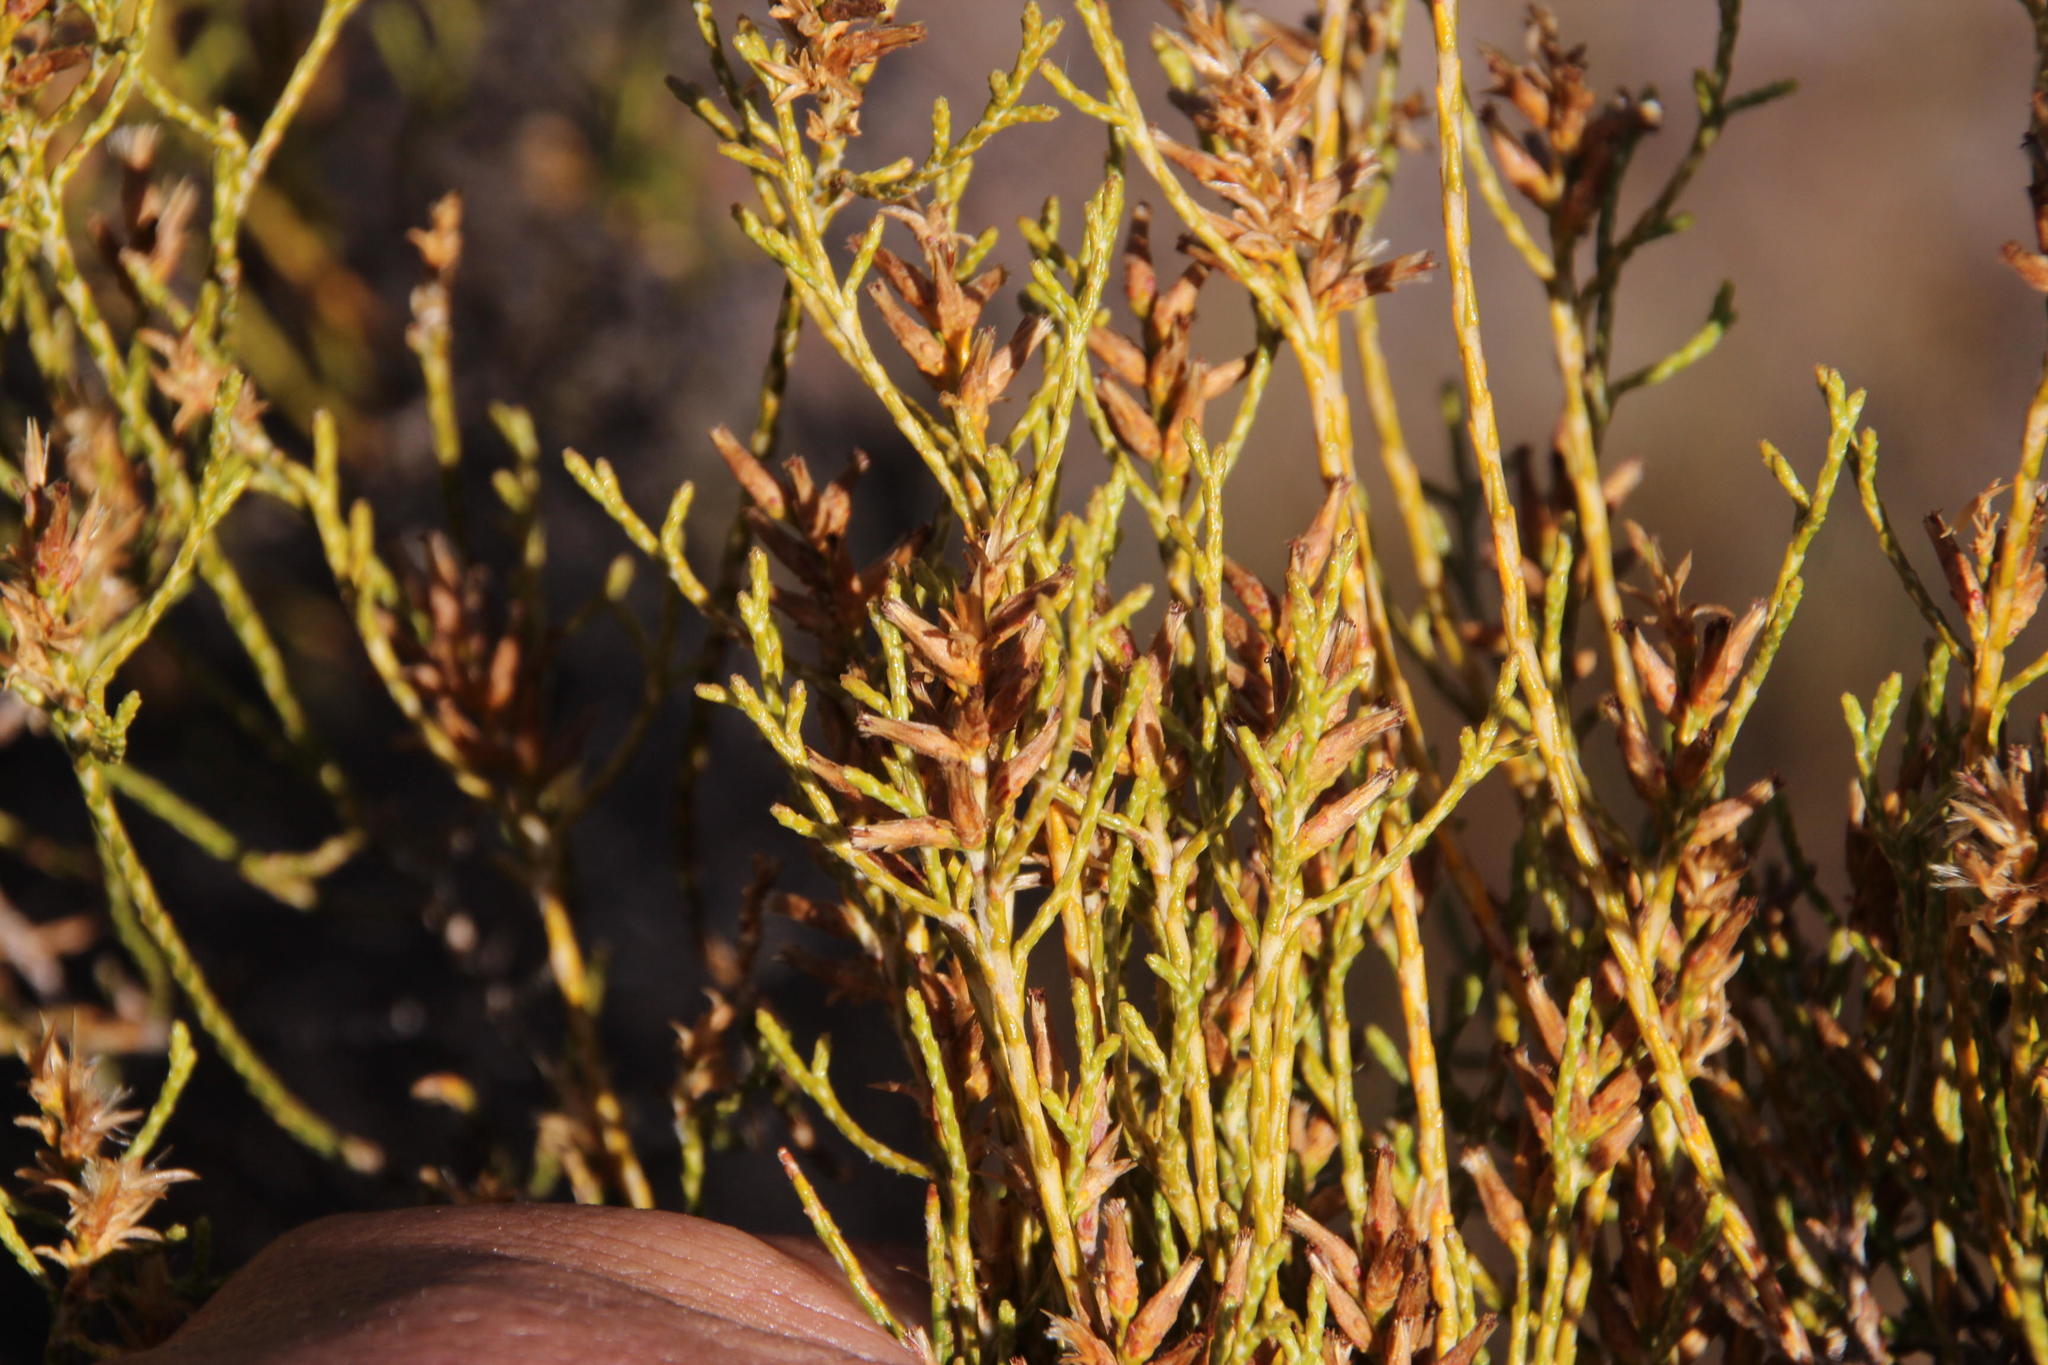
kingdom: Plantae
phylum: Tracheophyta
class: Magnoliopsida
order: Asterales
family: Asteraceae
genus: Dicerothamnus
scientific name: Dicerothamnus adpressus
